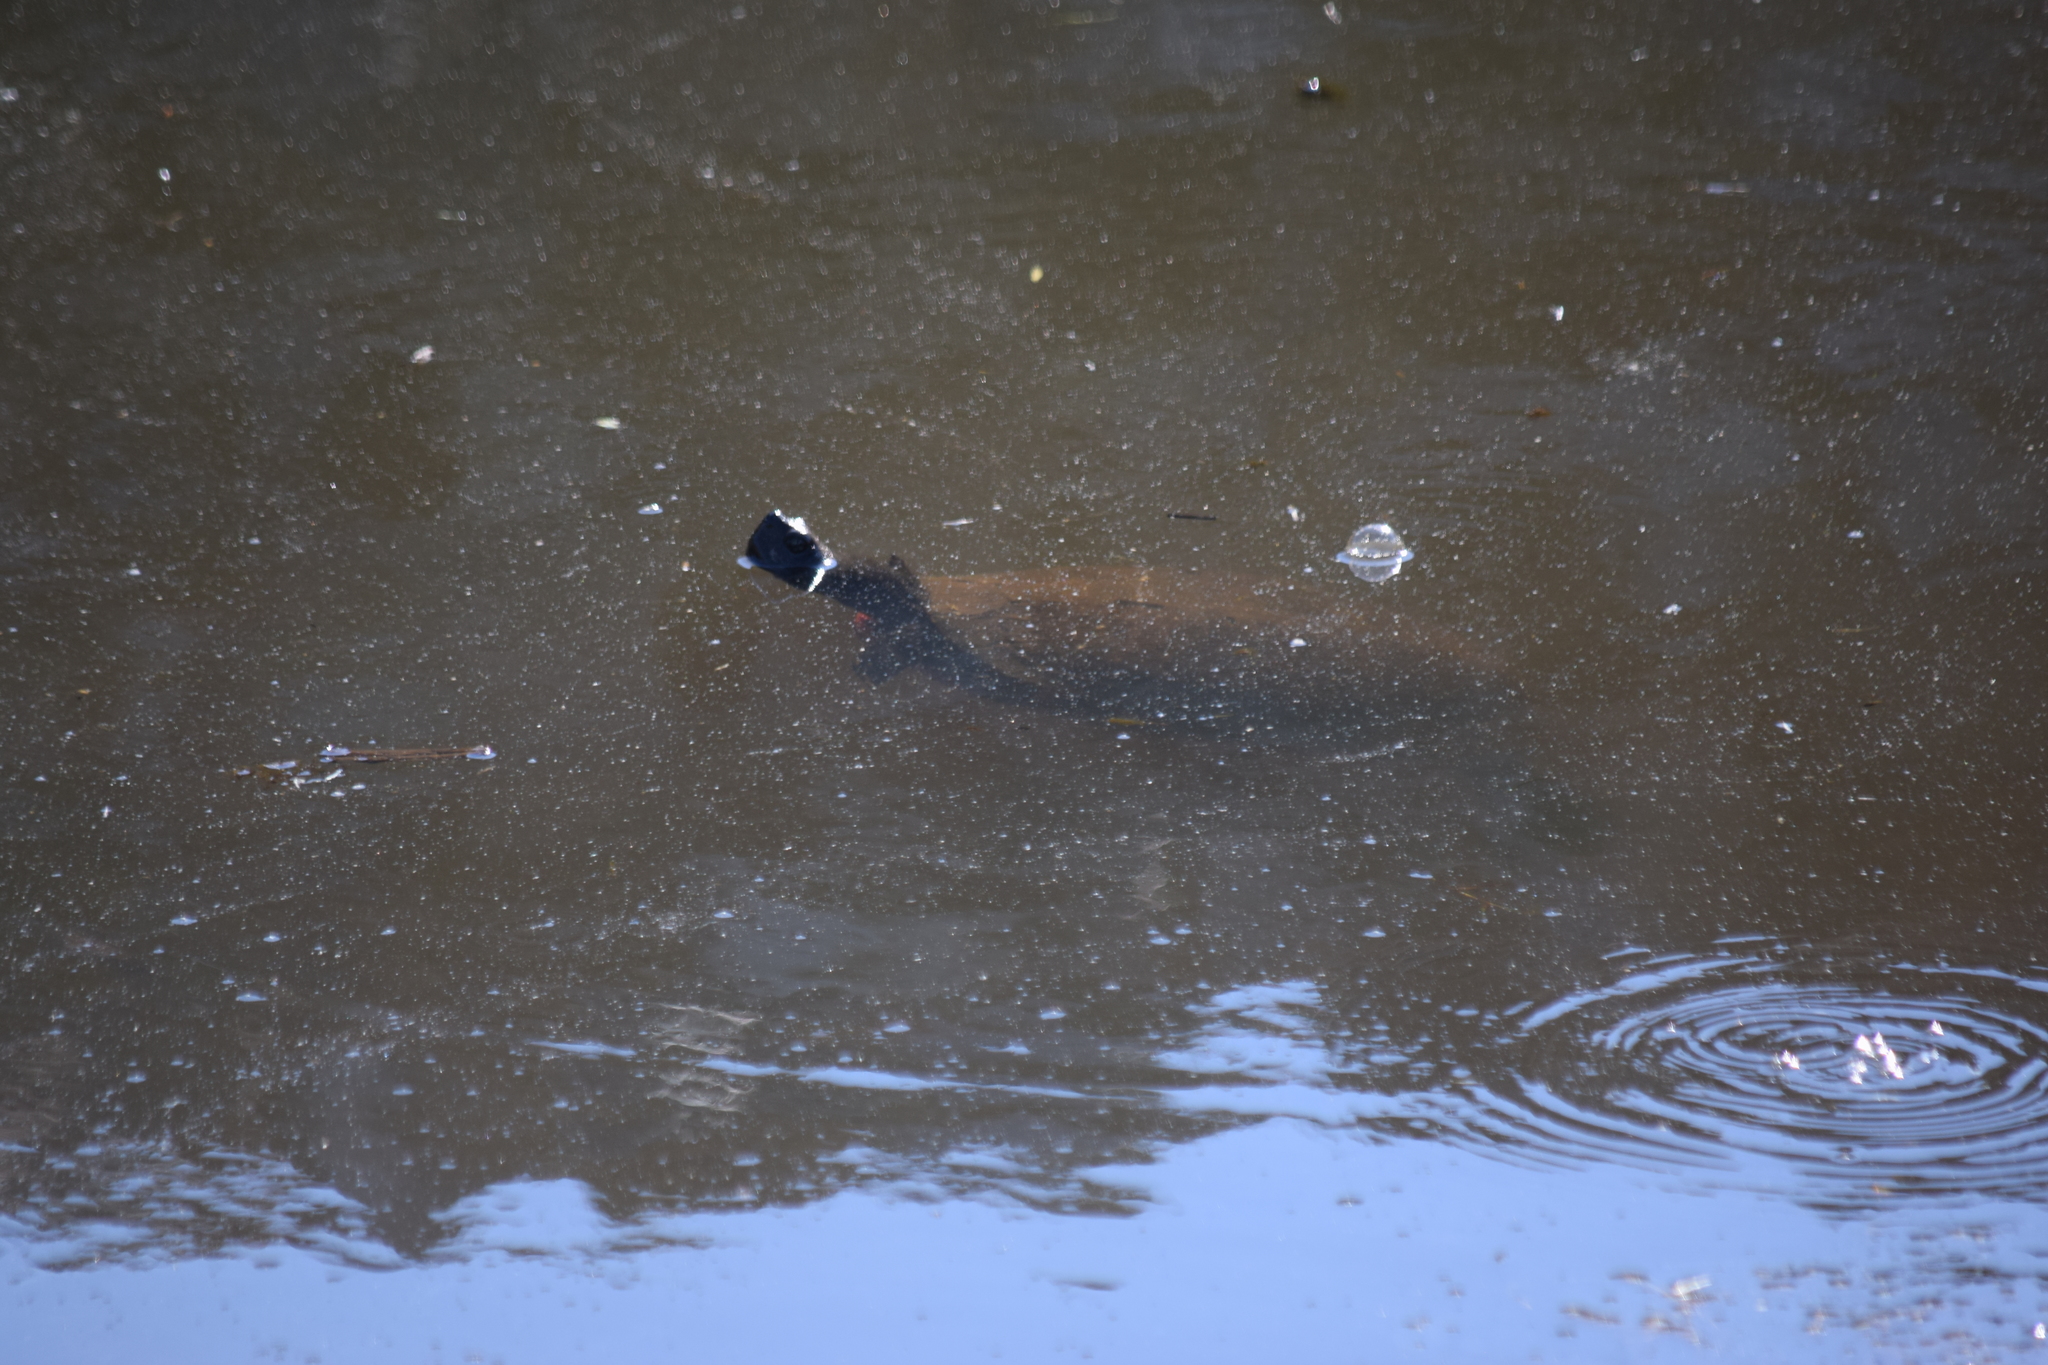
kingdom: Animalia
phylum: Chordata
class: Testudines
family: Emydidae
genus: Pseudemys
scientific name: Pseudemys rubriventris
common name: American red-bellied turtle
